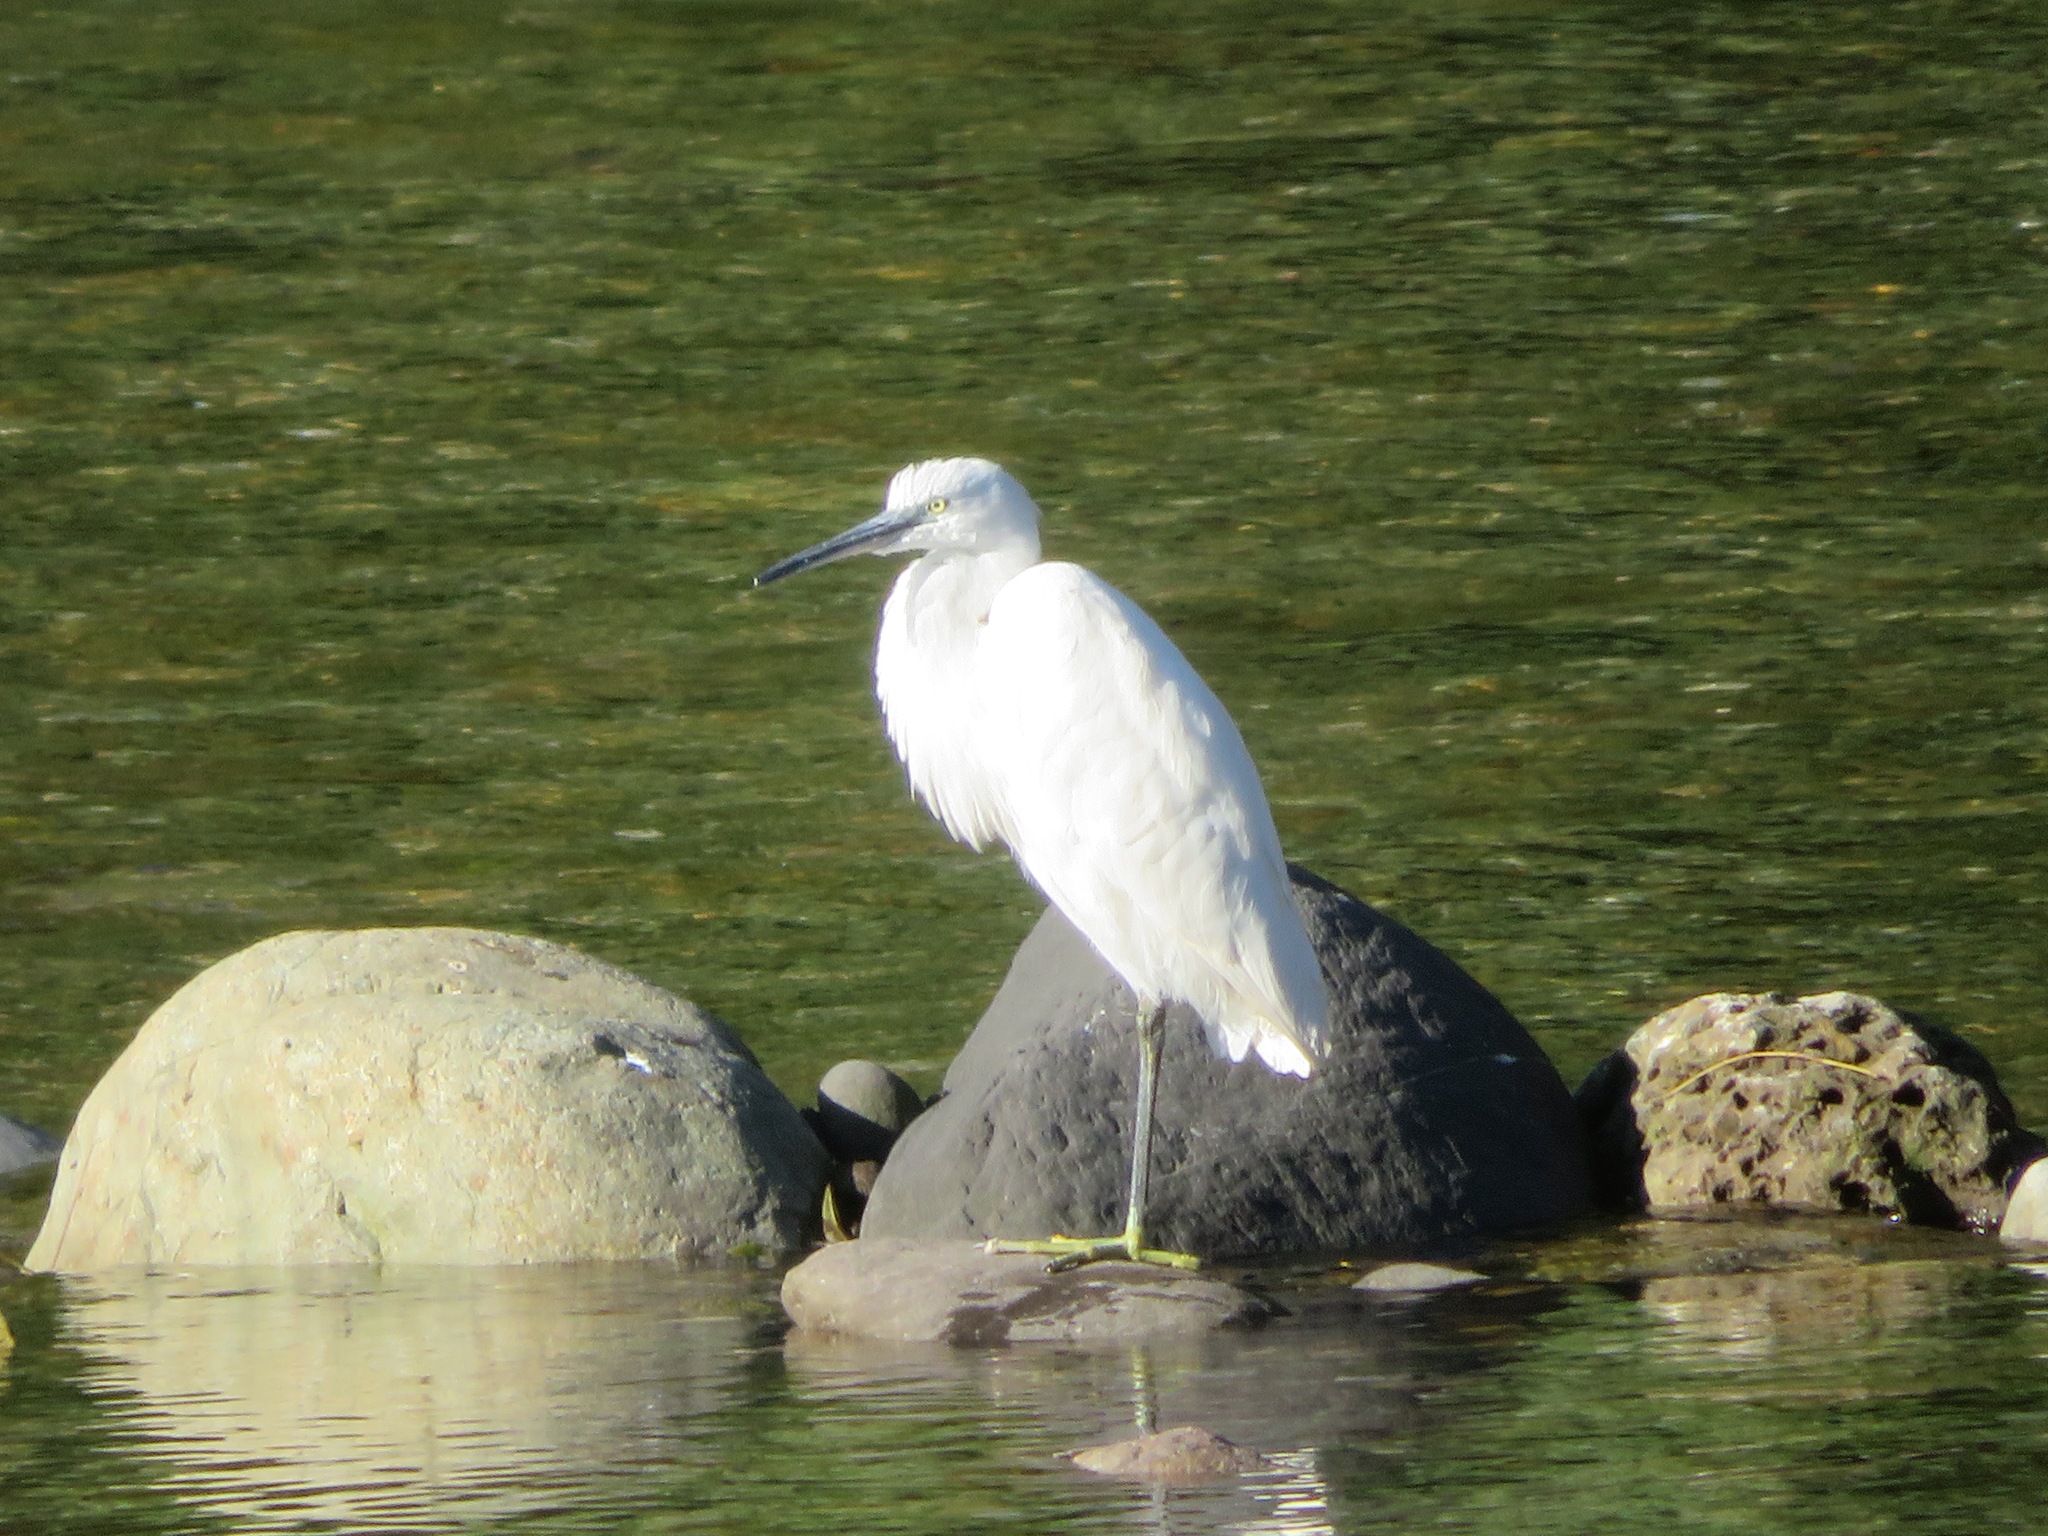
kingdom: Animalia
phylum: Chordata
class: Aves
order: Pelecaniformes
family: Ardeidae
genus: Egretta
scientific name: Egretta garzetta
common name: Little egret
